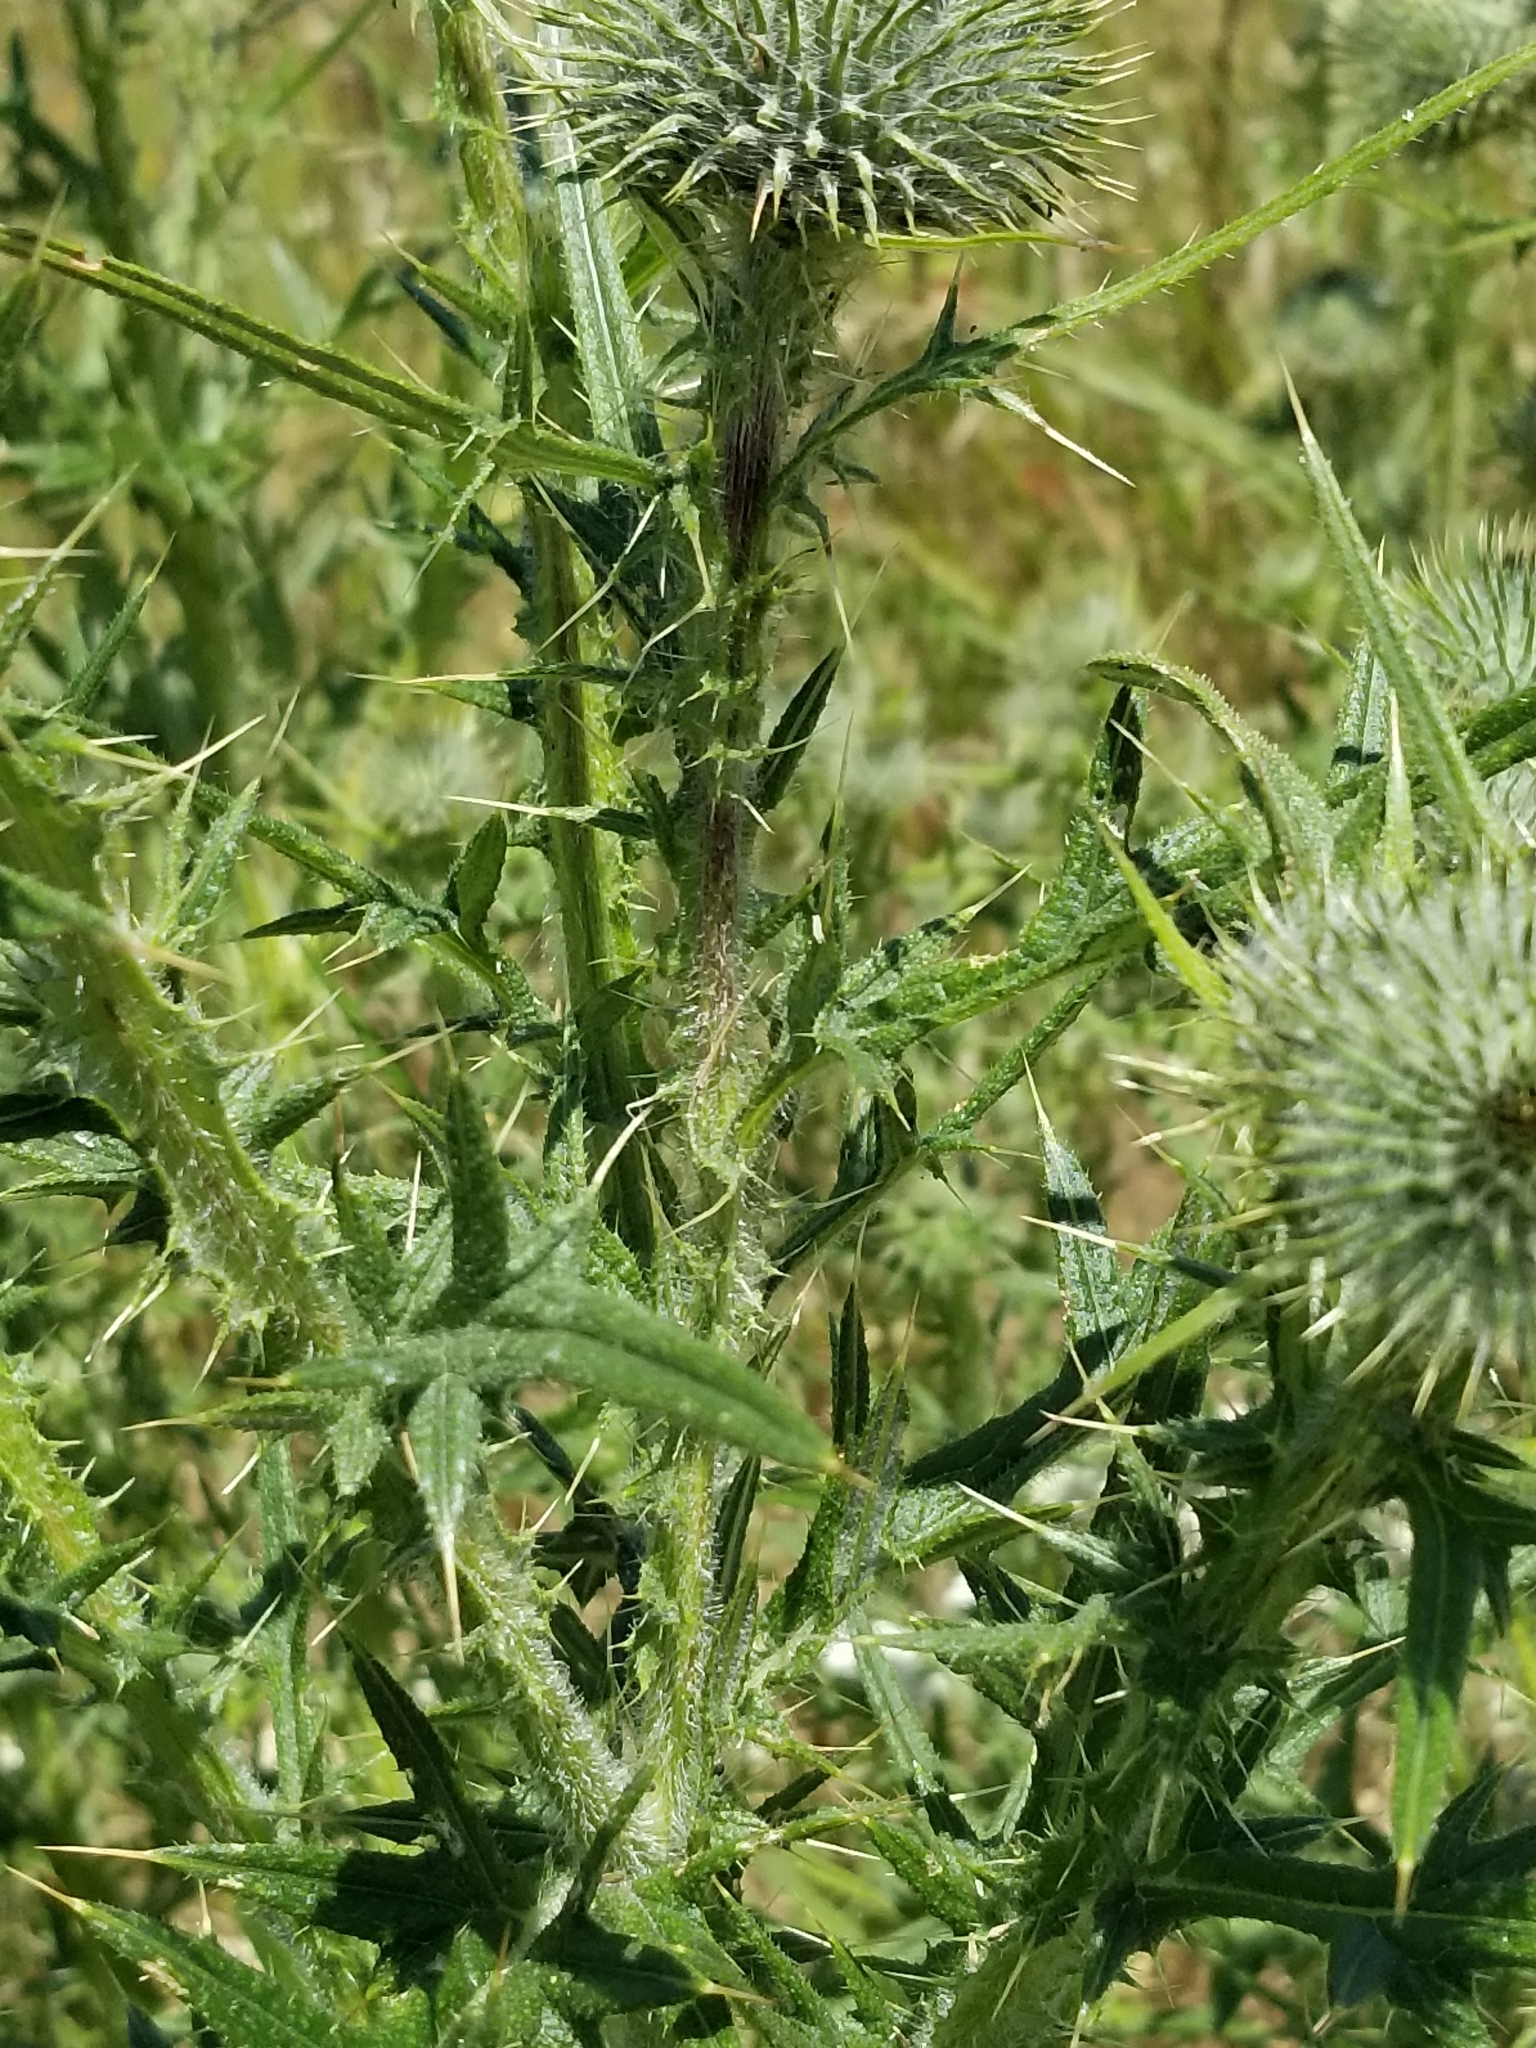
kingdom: Plantae
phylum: Tracheophyta
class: Magnoliopsida
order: Asterales
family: Asteraceae
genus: Cirsium
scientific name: Cirsium vulgare
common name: Bull thistle
